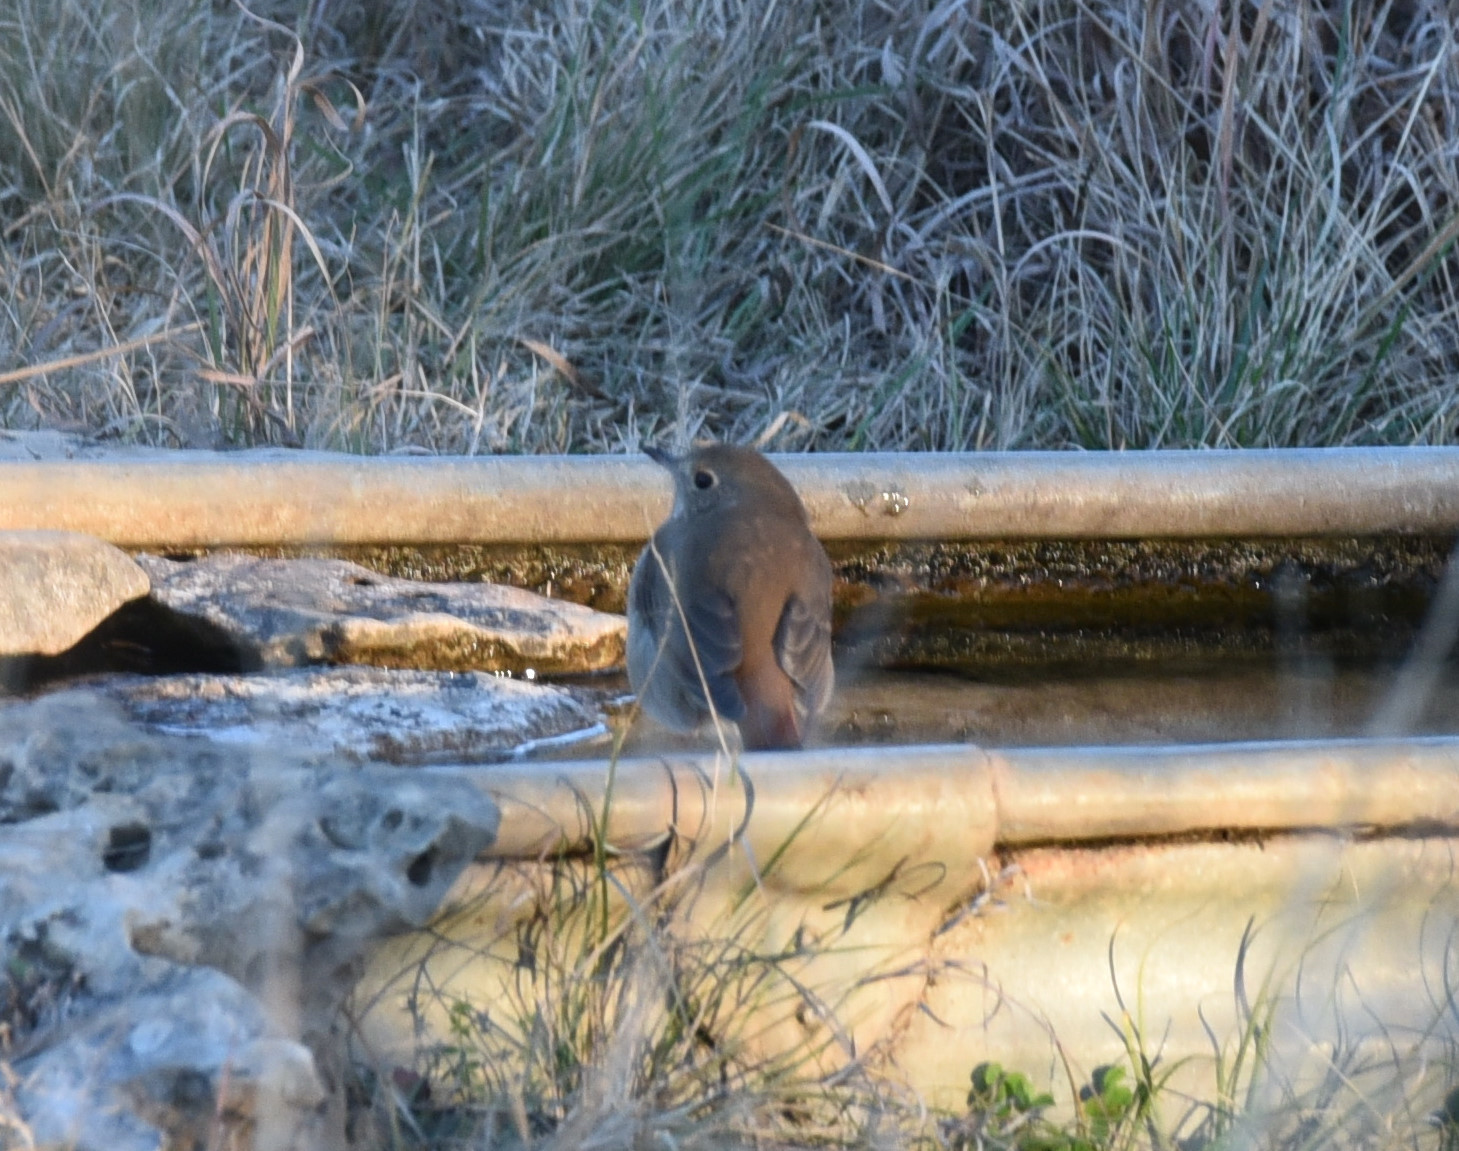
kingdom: Animalia
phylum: Chordata
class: Aves
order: Passeriformes
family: Turdidae
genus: Catharus
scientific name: Catharus guttatus
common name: Hermit thrush
